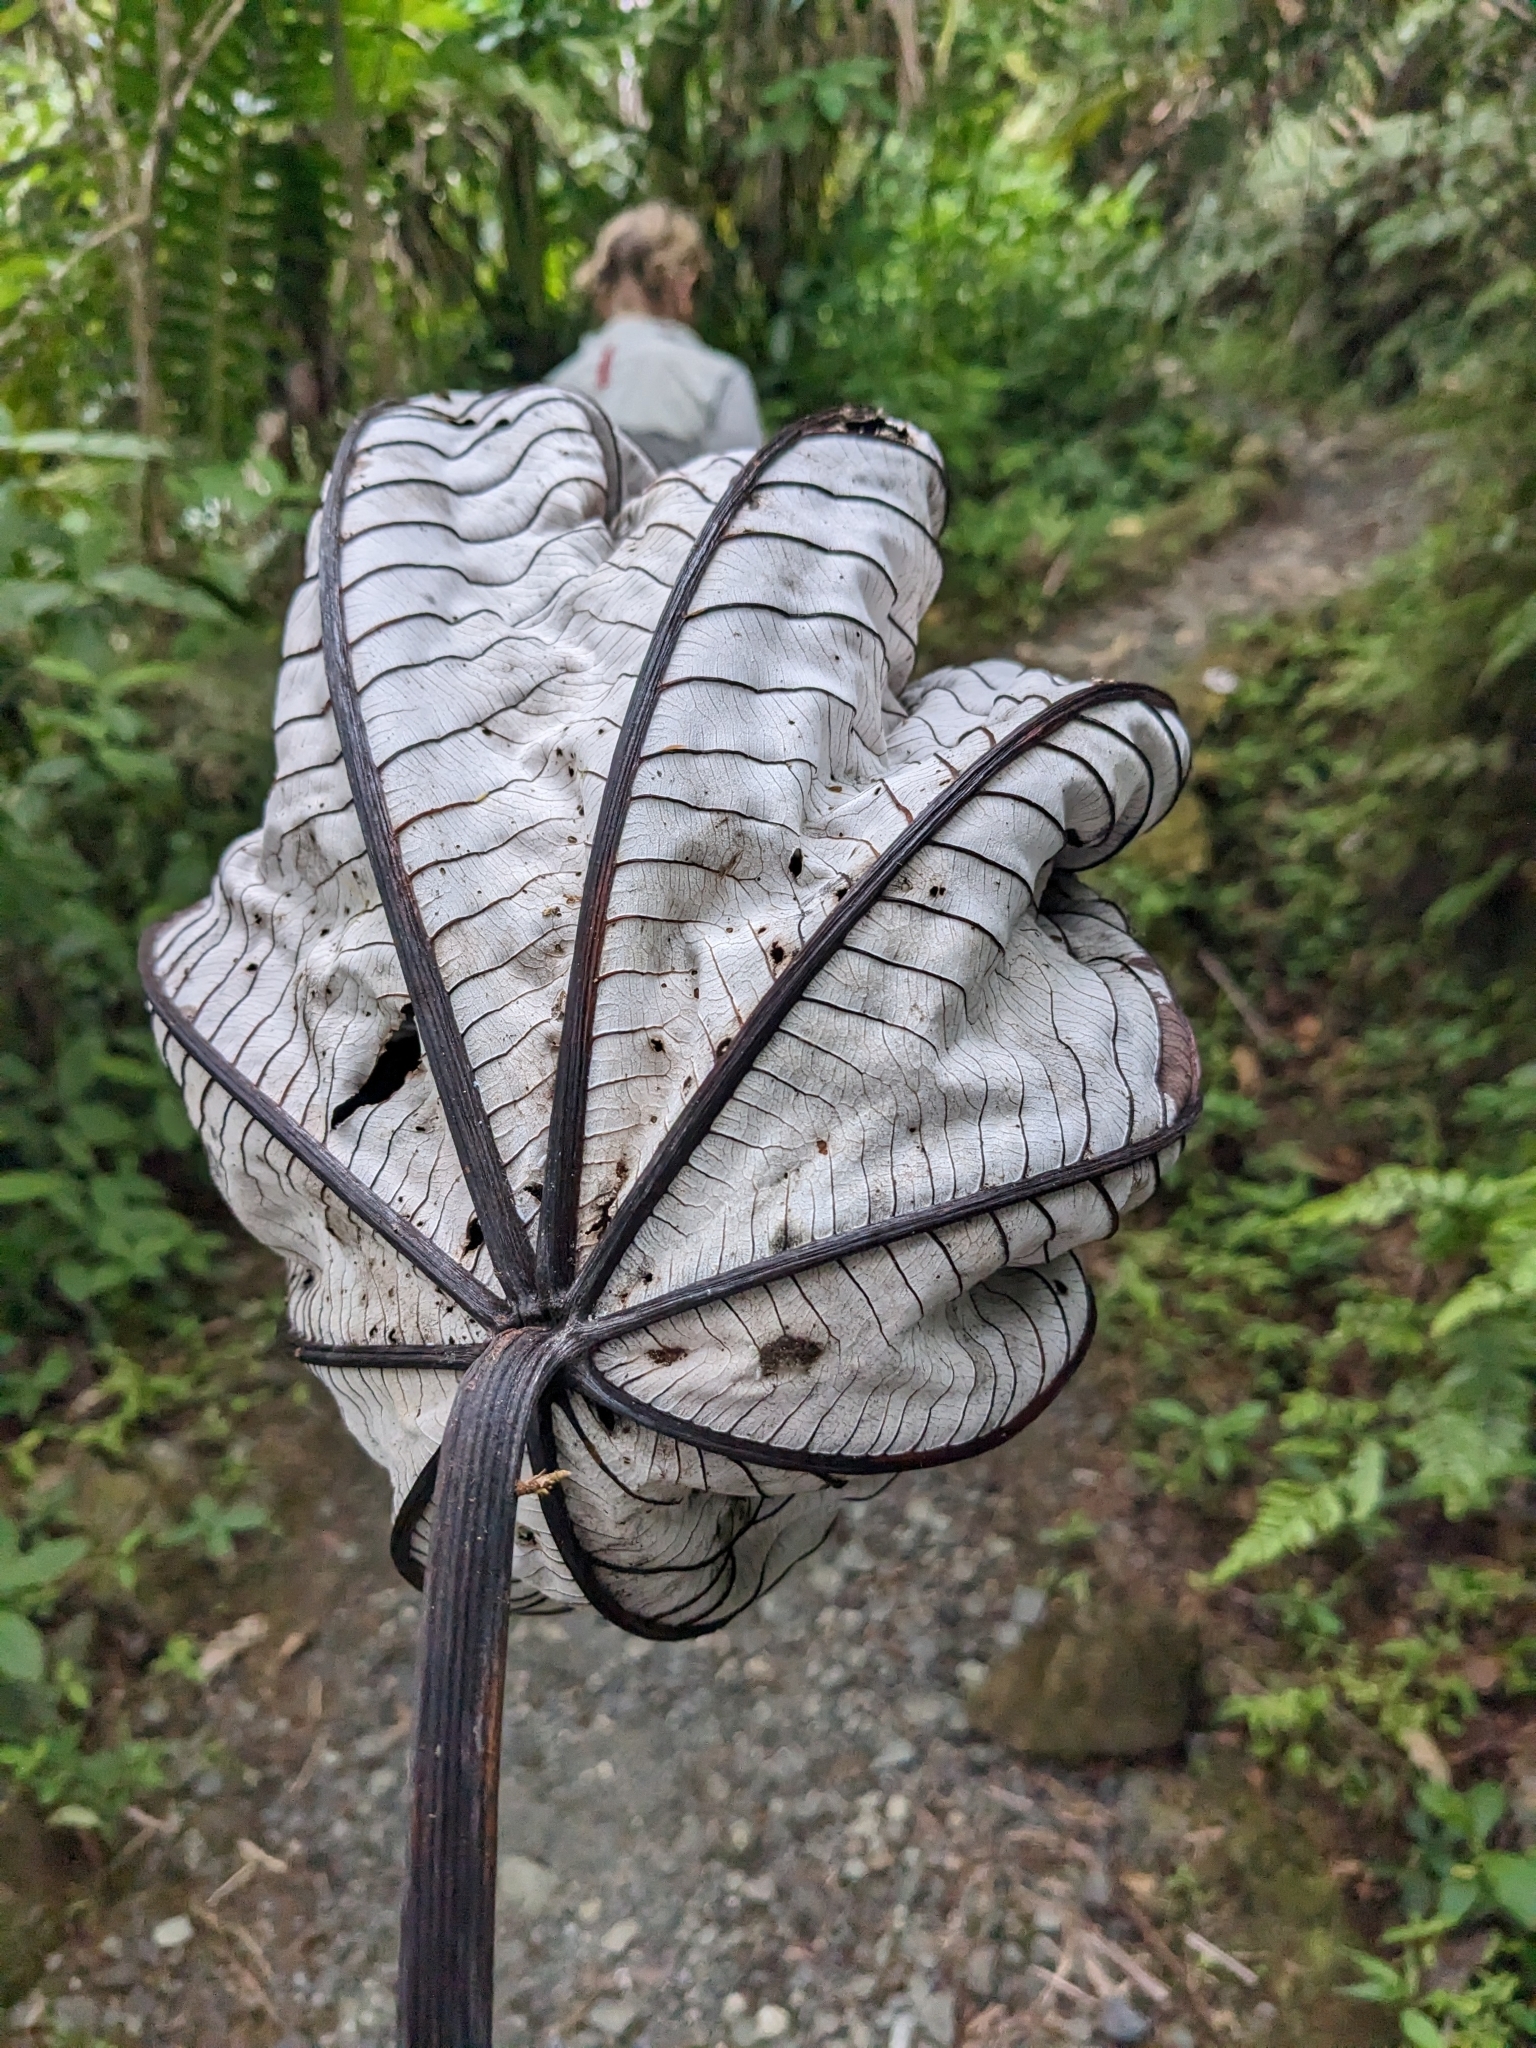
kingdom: Plantae
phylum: Tracheophyta
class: Magnoliopsida
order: Rosales
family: Urticaceae
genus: Cecropia
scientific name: Cecropia schreberiana
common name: Trumpet tree
